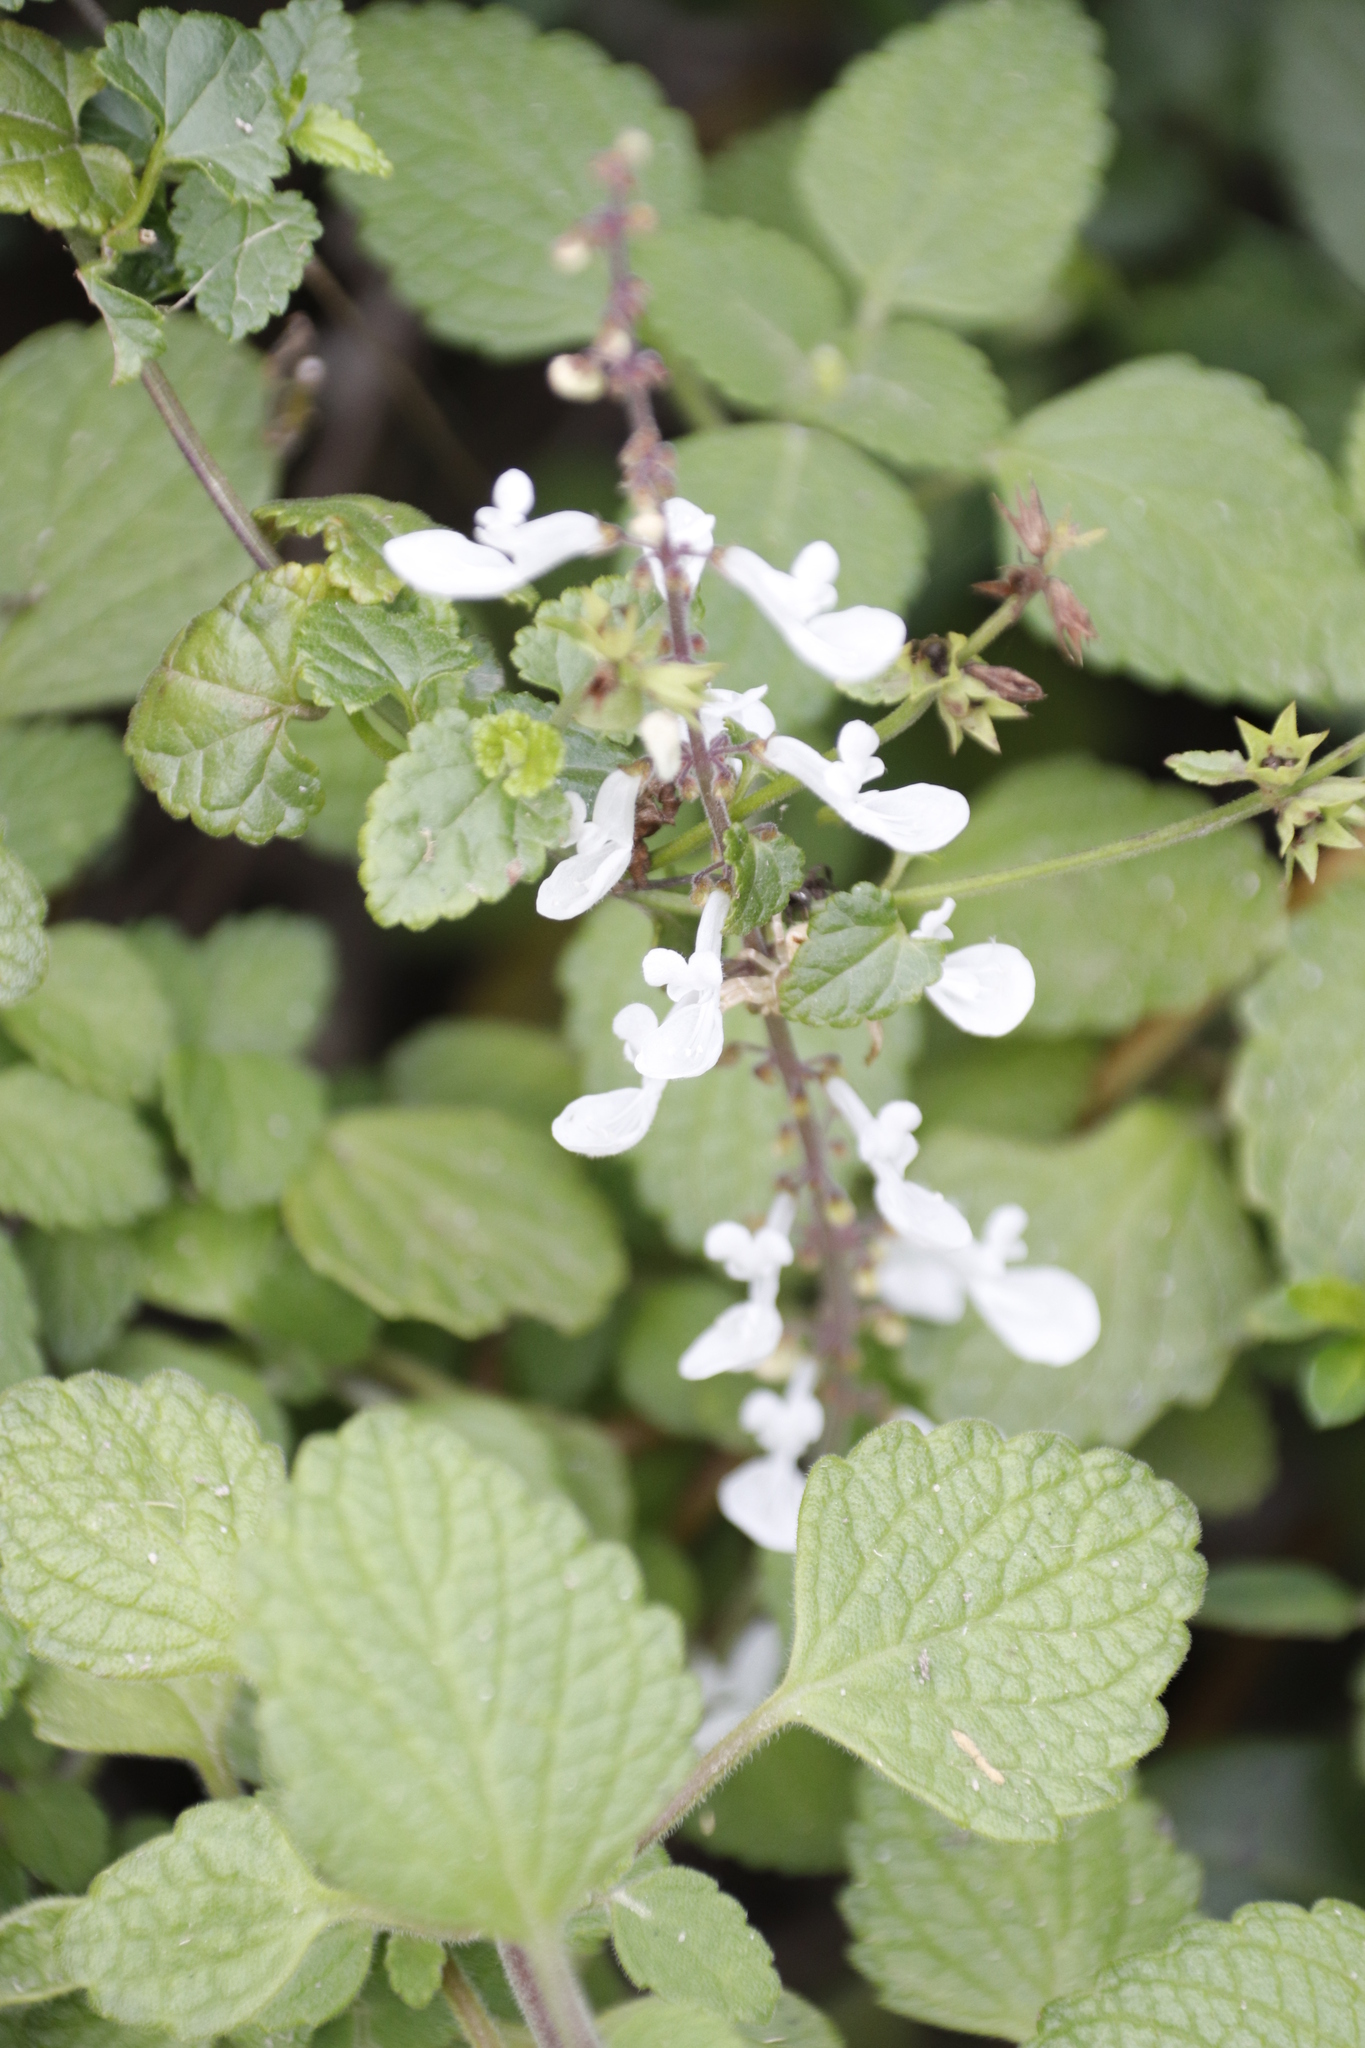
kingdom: Plantae
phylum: Tracheophyta
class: Magnoliopsida
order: Lamiales
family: Lamiaceae
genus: Coleus
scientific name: Coleus madagascariensis
